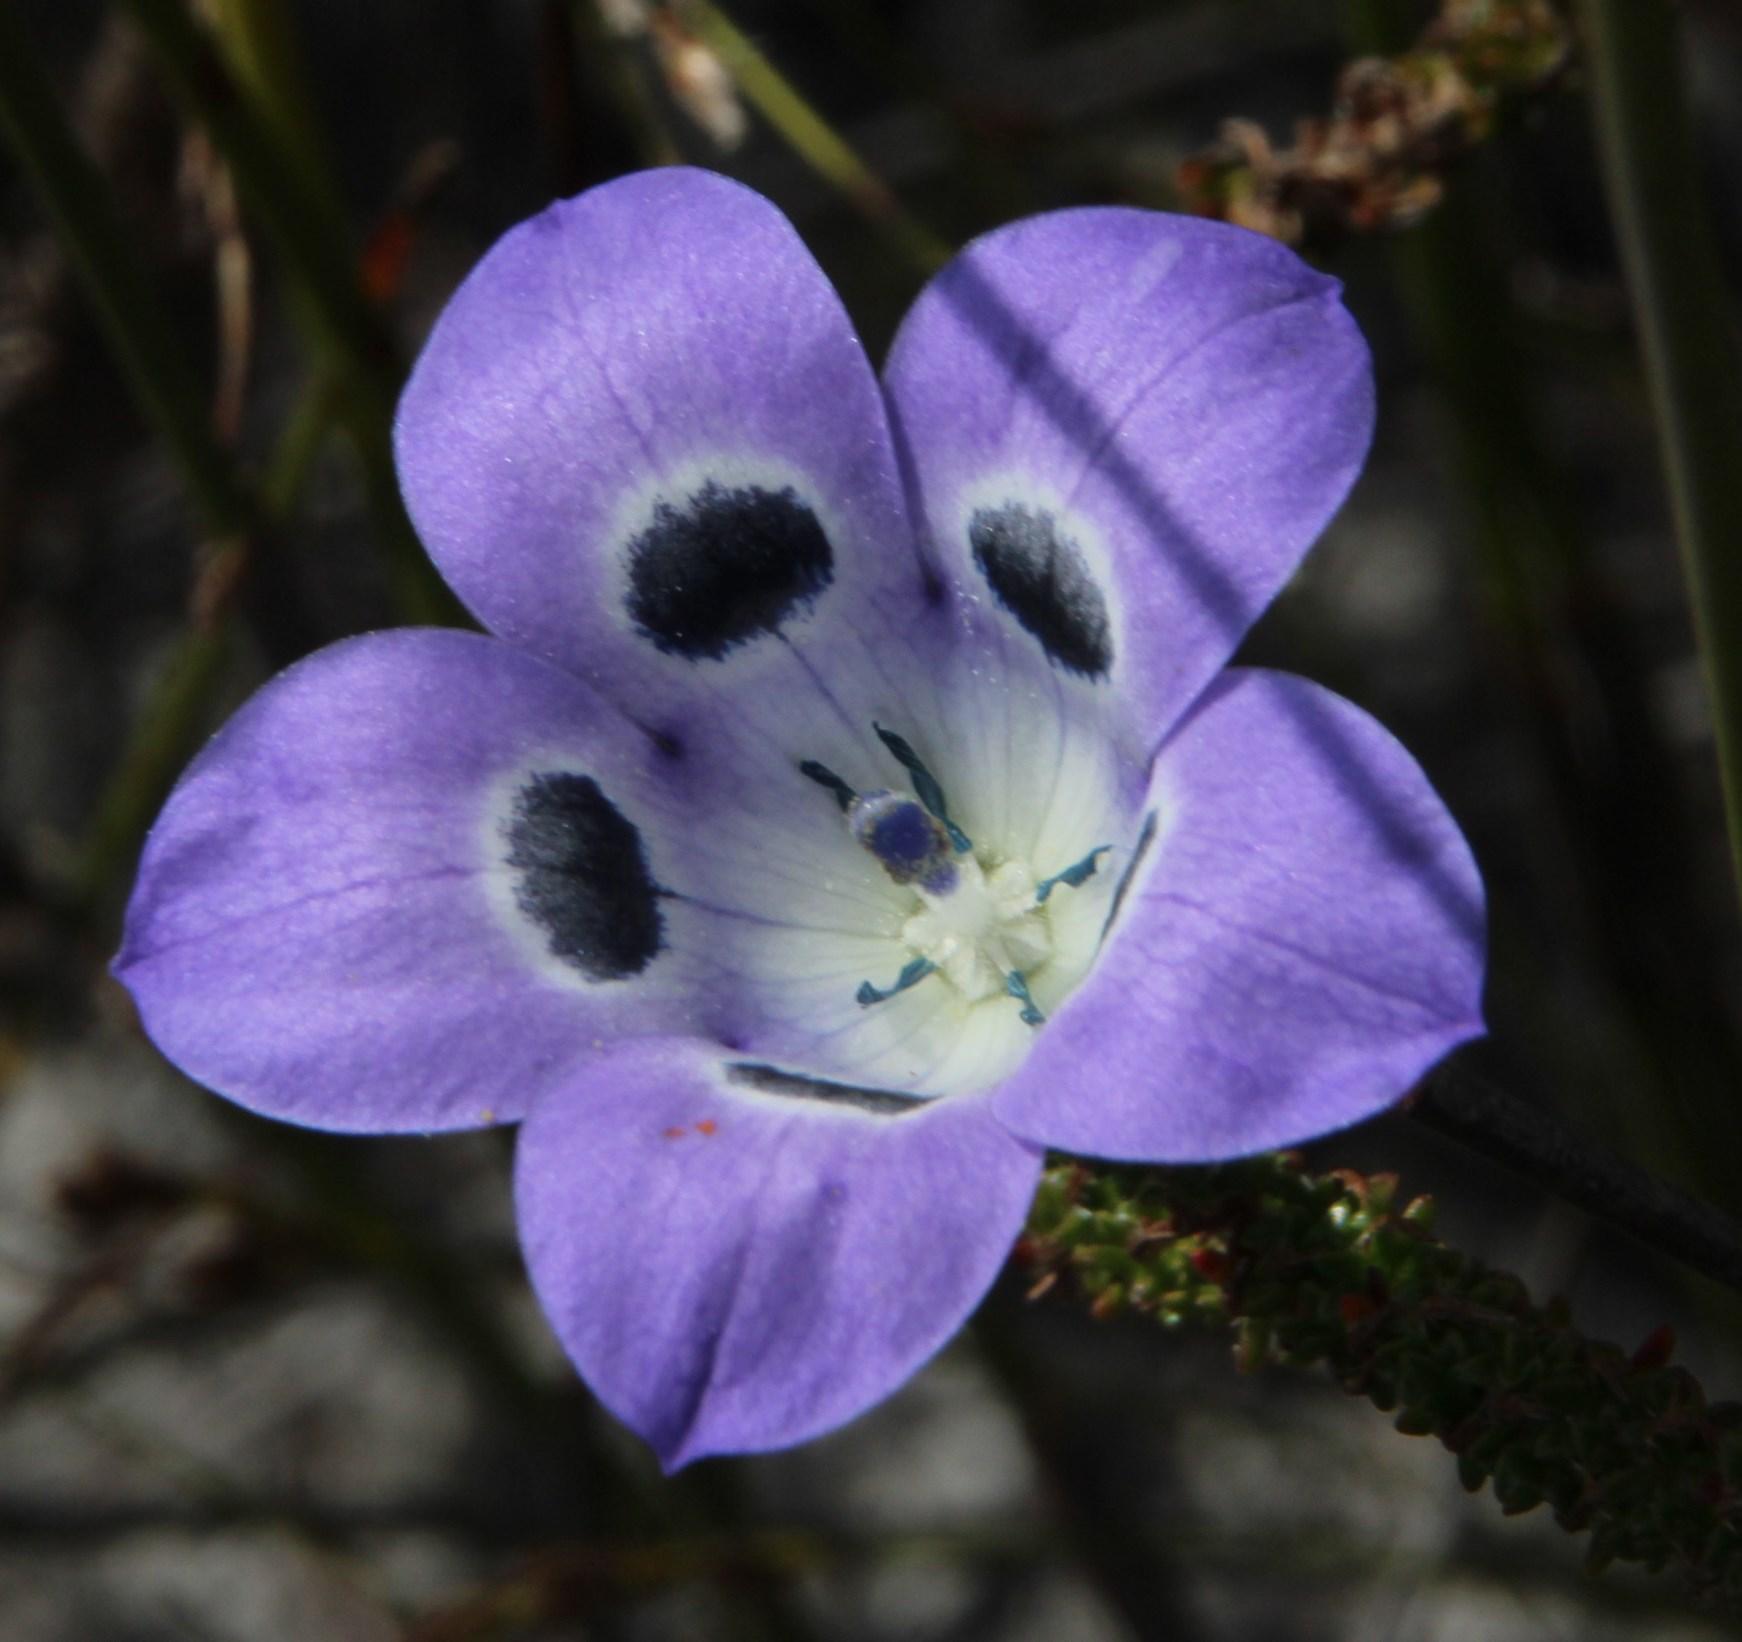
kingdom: Plantae
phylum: Tracheophyta
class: Magnoliopsida
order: Asterales
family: Campanulaceae
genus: Roella
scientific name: Roella incurva
